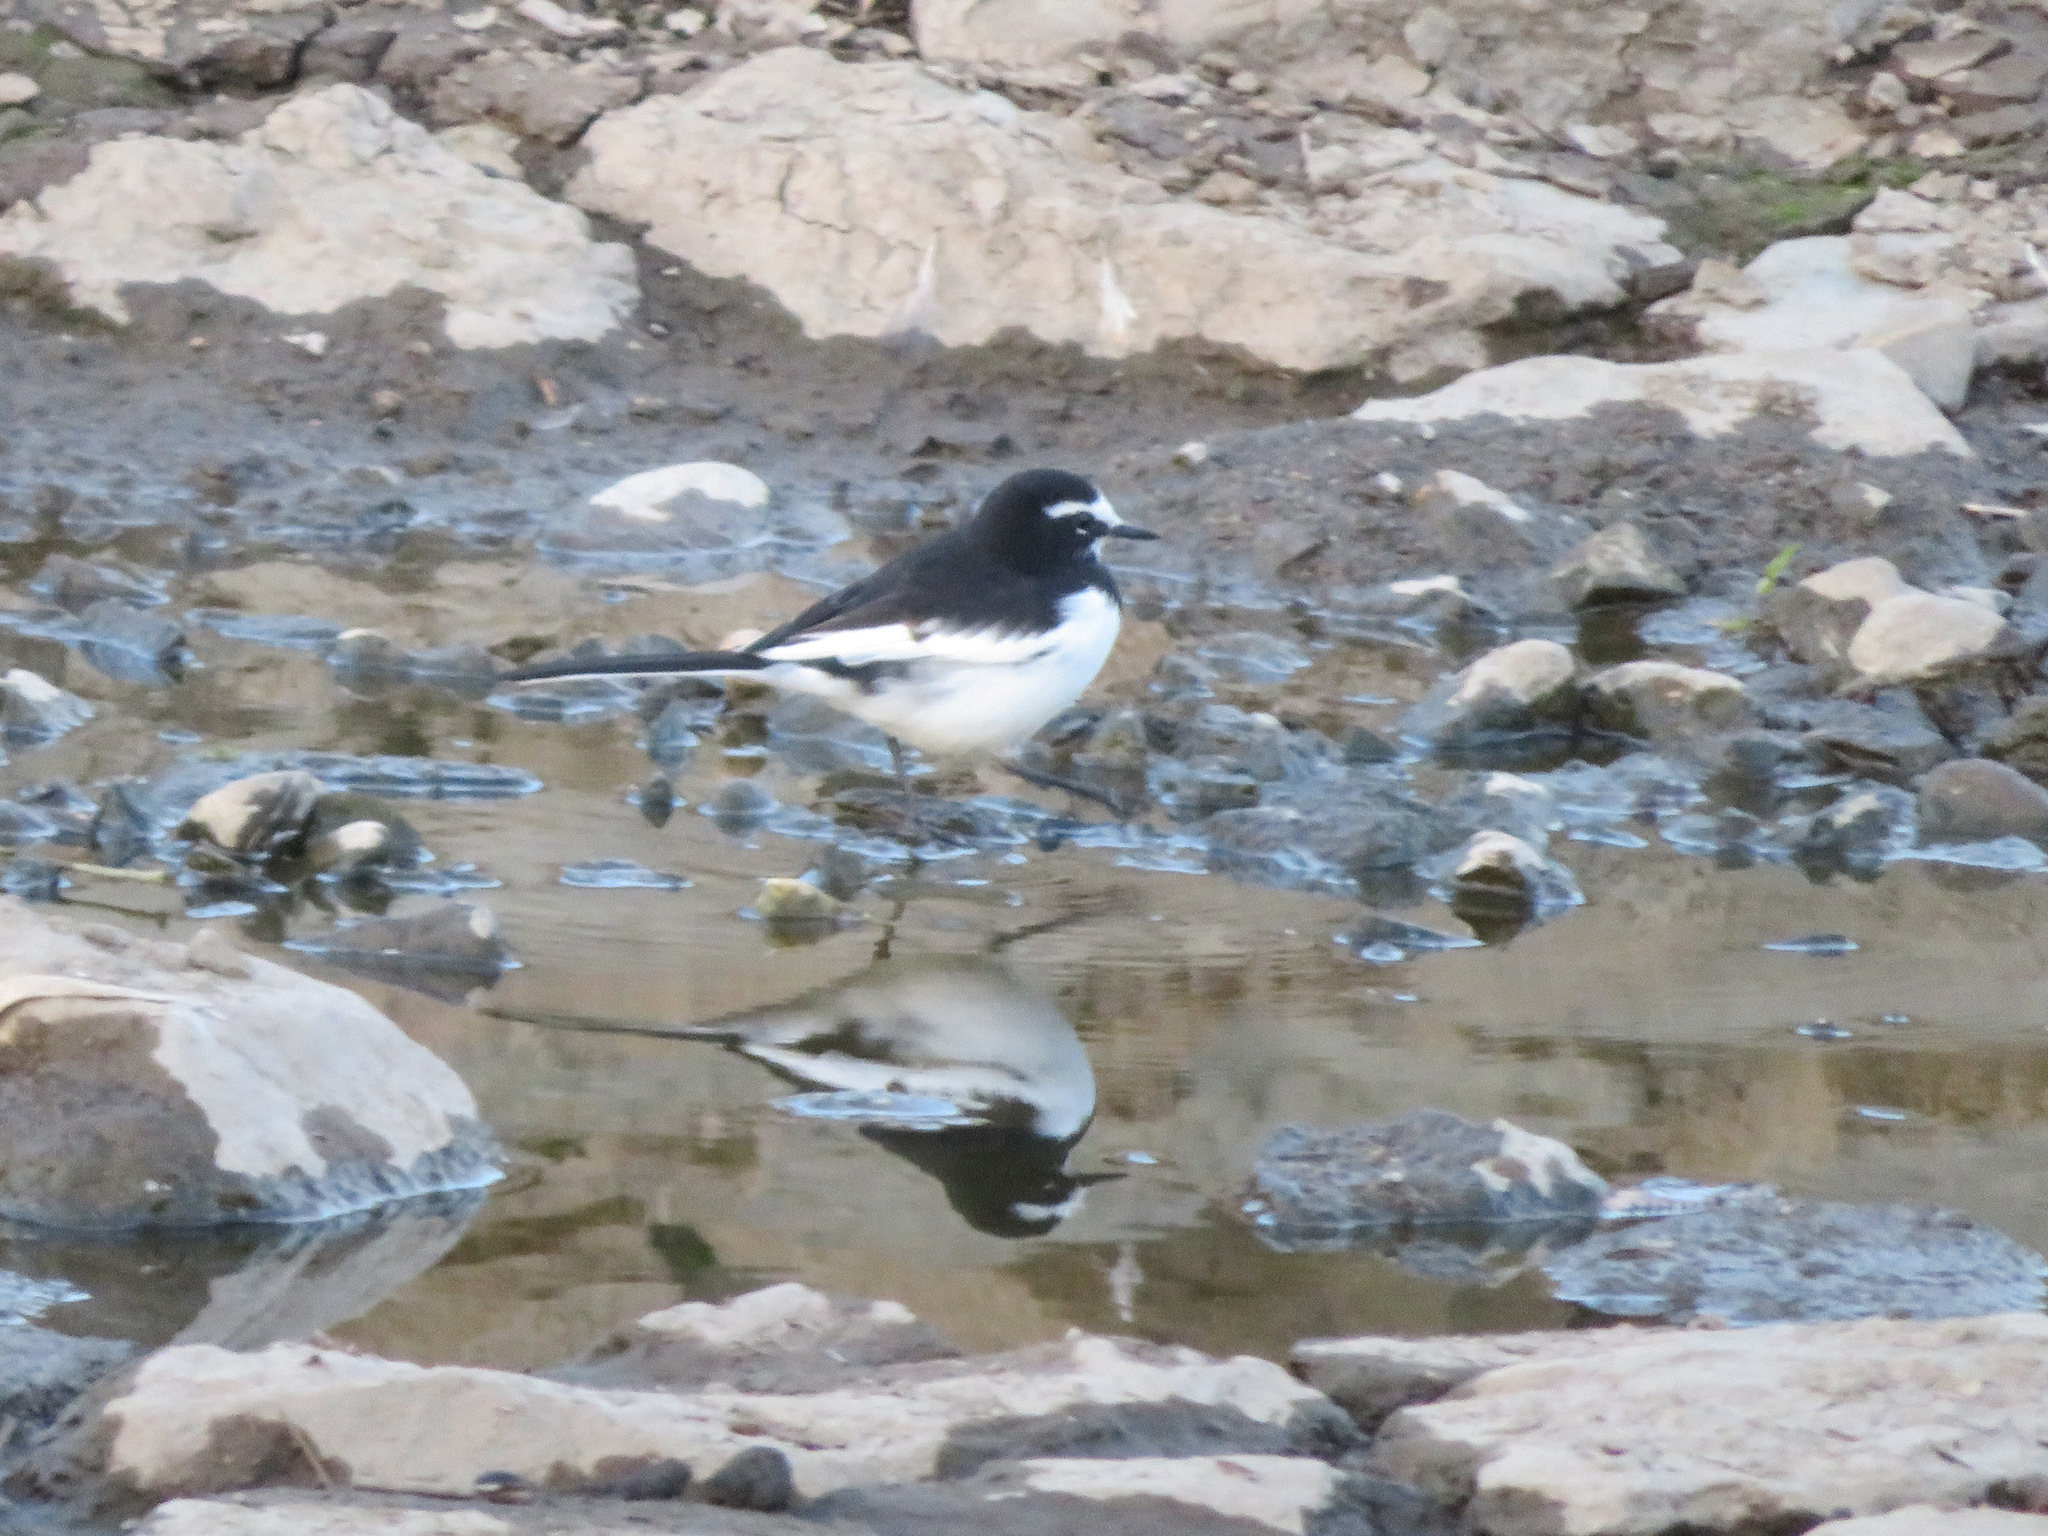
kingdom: Animalia
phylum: Chordata
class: Aves
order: Passeriformes
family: Motacillidae
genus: Motacilla
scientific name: Motacilla grandis
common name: Japanese wagtail
